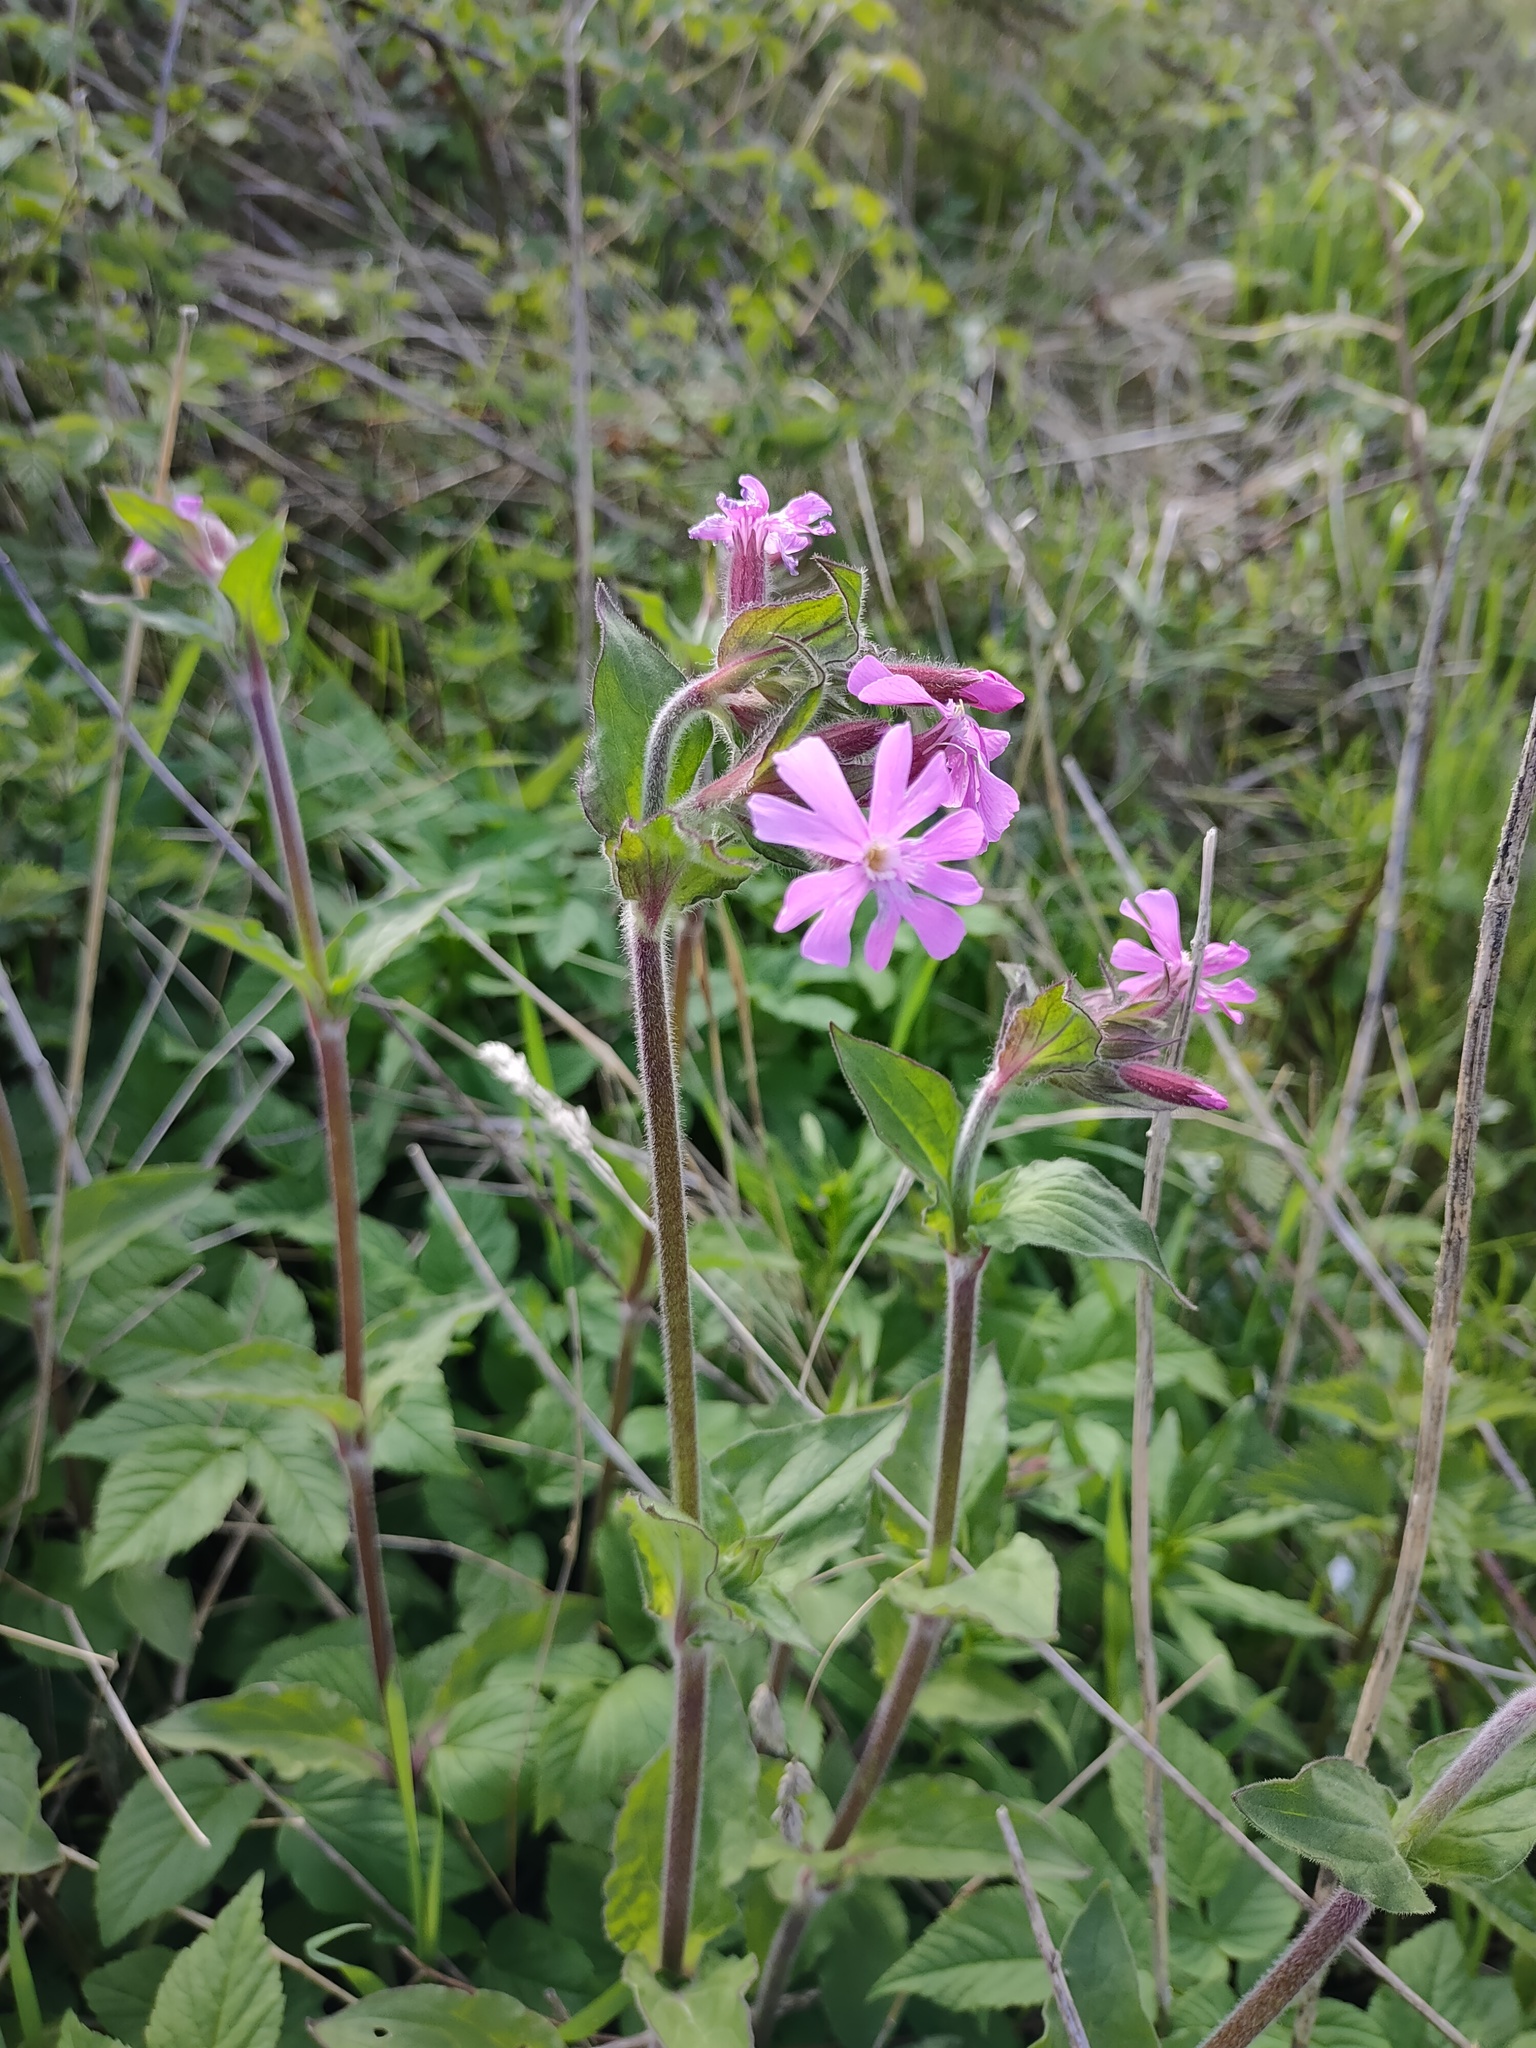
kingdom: Plantae
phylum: Tracheophyta
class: Magnoliopsida
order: Caryophyllales
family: Caryophyllaceae
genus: Silene
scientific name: Silene dioica
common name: Red campion
